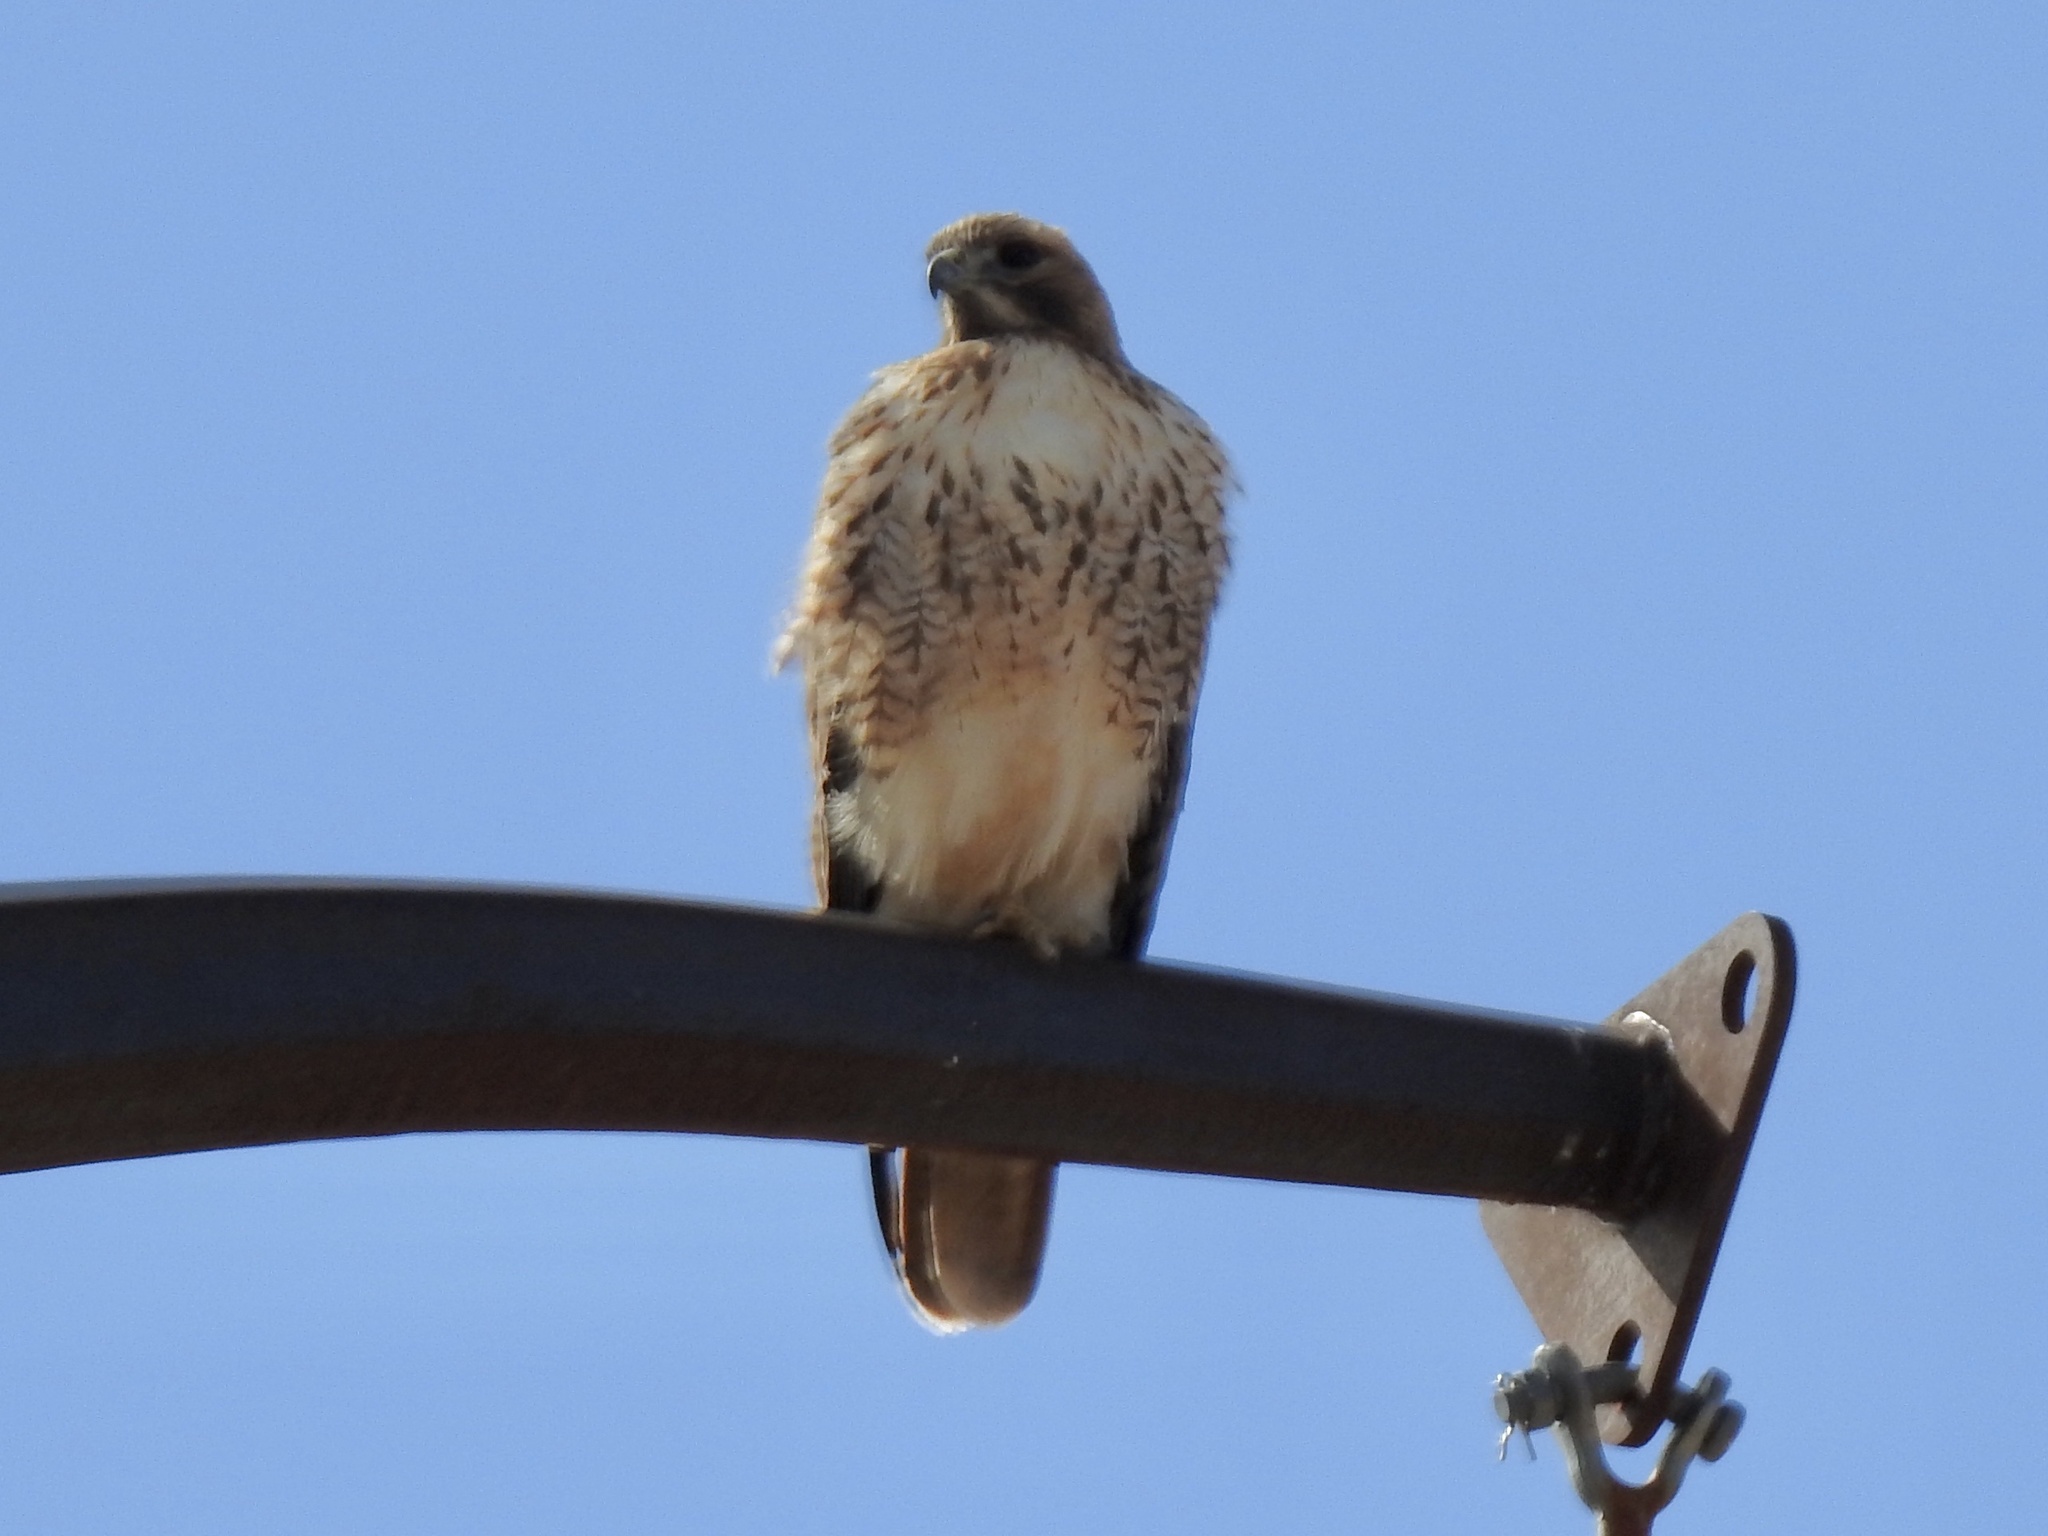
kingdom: Animalia
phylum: Chordata
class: Aves
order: Accipitriformes
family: Accipitridae
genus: Buteo
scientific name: Buteo jamaicensis
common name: Red-tailed hawk
